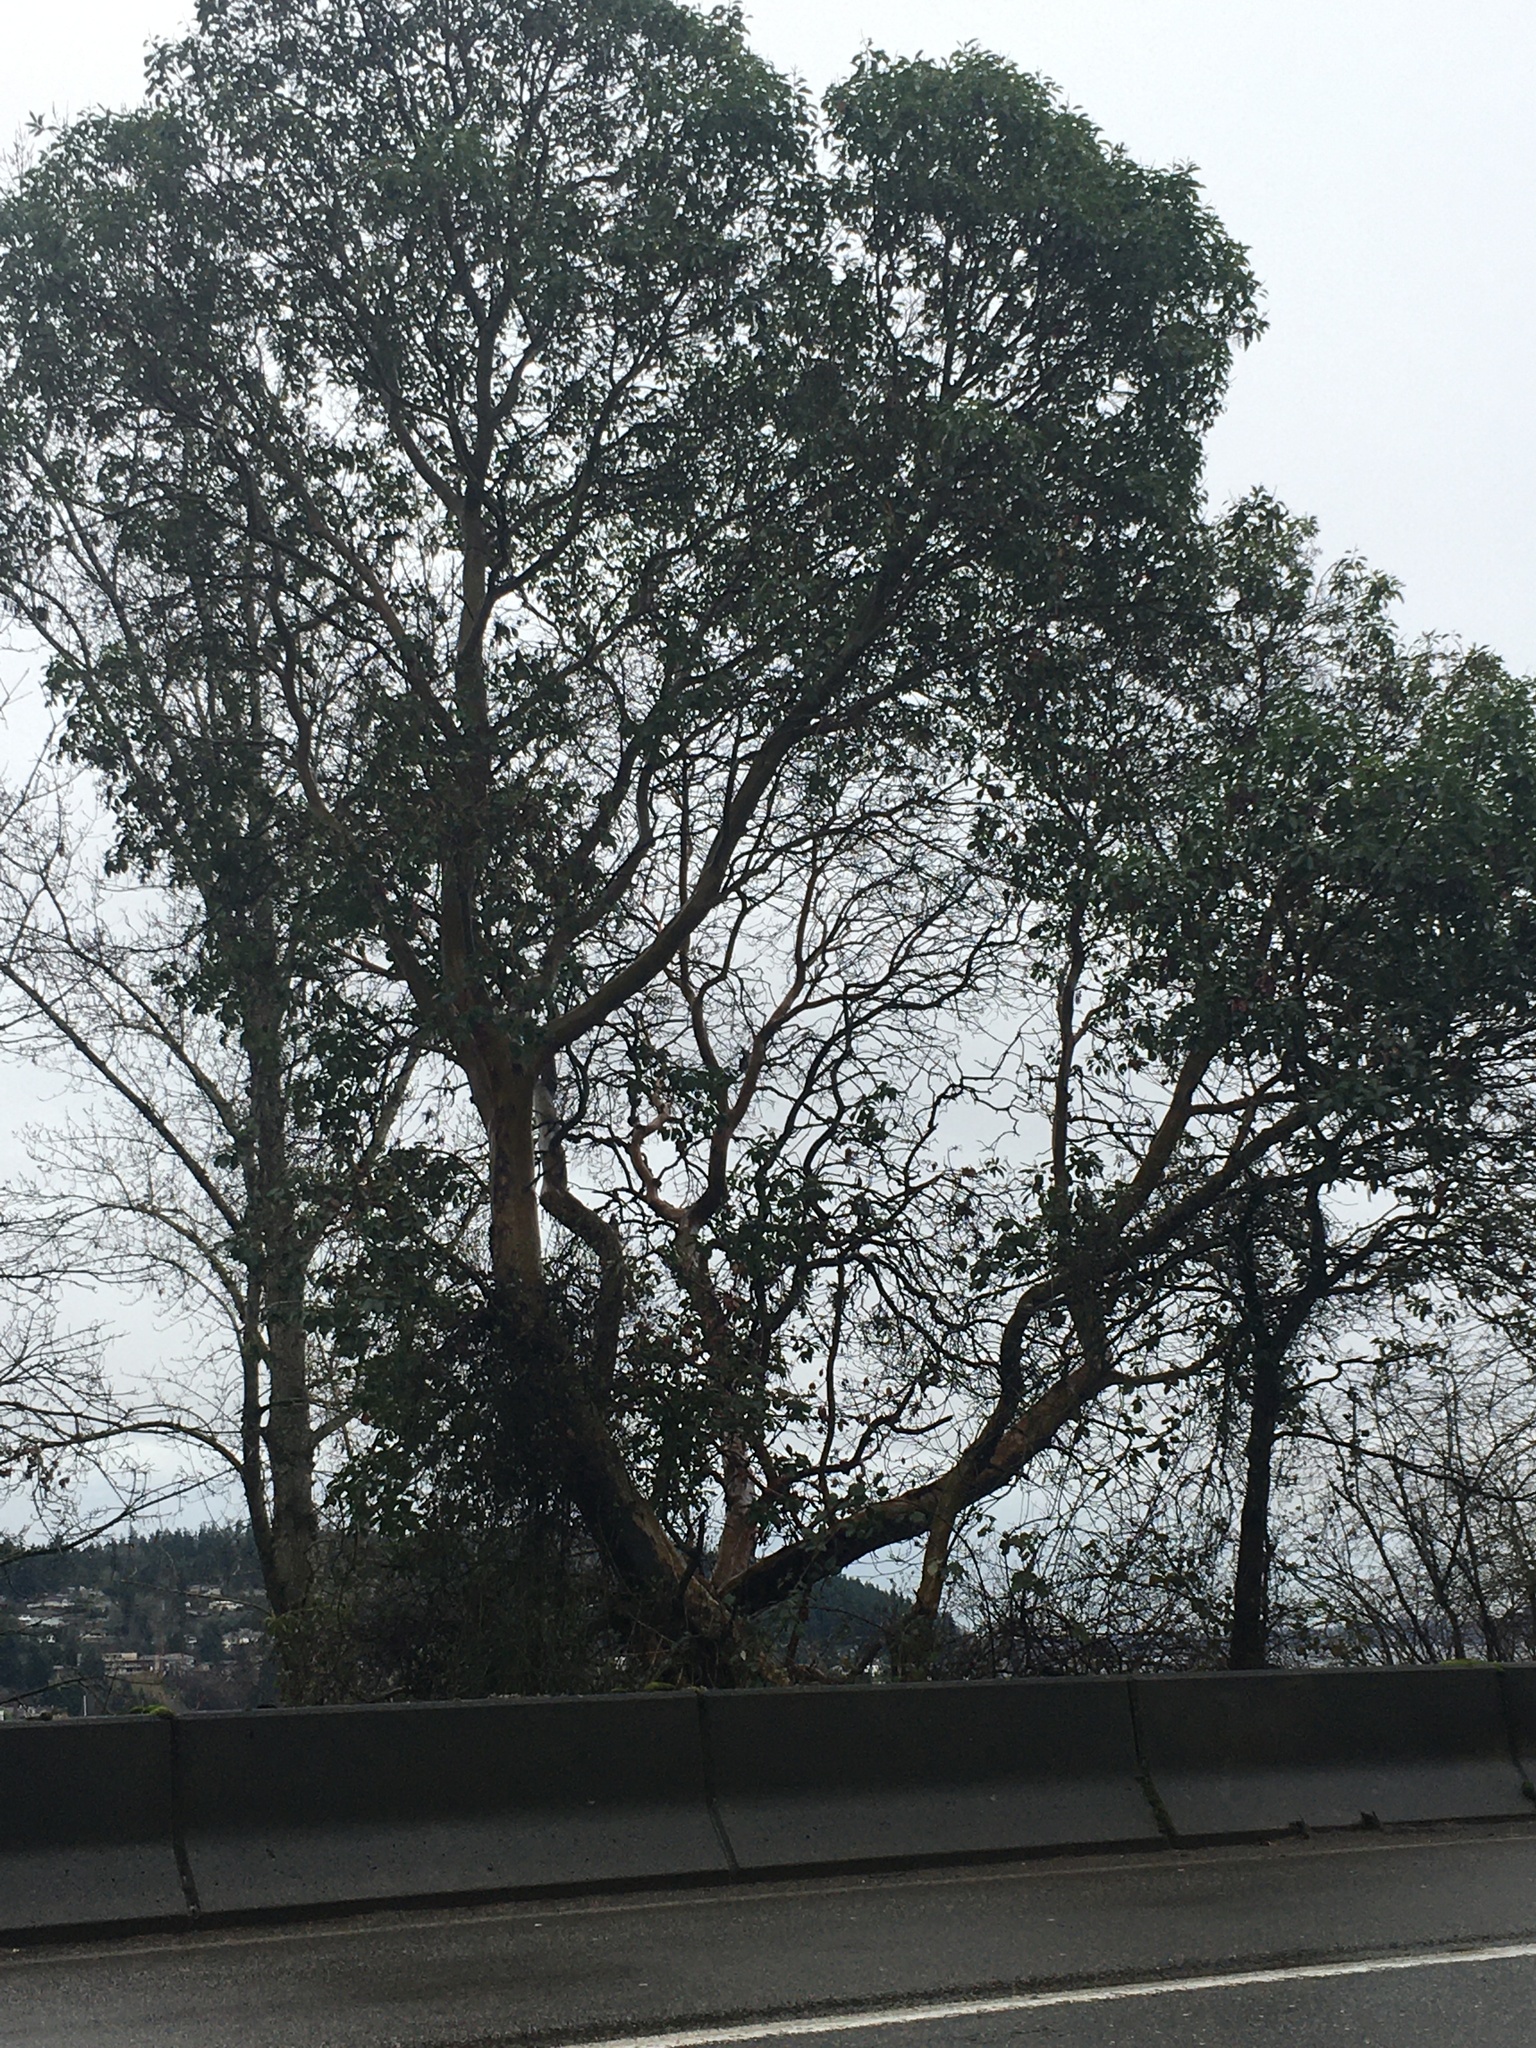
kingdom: Plantae
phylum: Tracheophyta
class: Magnoliopsida
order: Ericales
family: Ericaceae
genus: Arbutus
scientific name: Arbutus menziesii
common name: Pacific madrone
